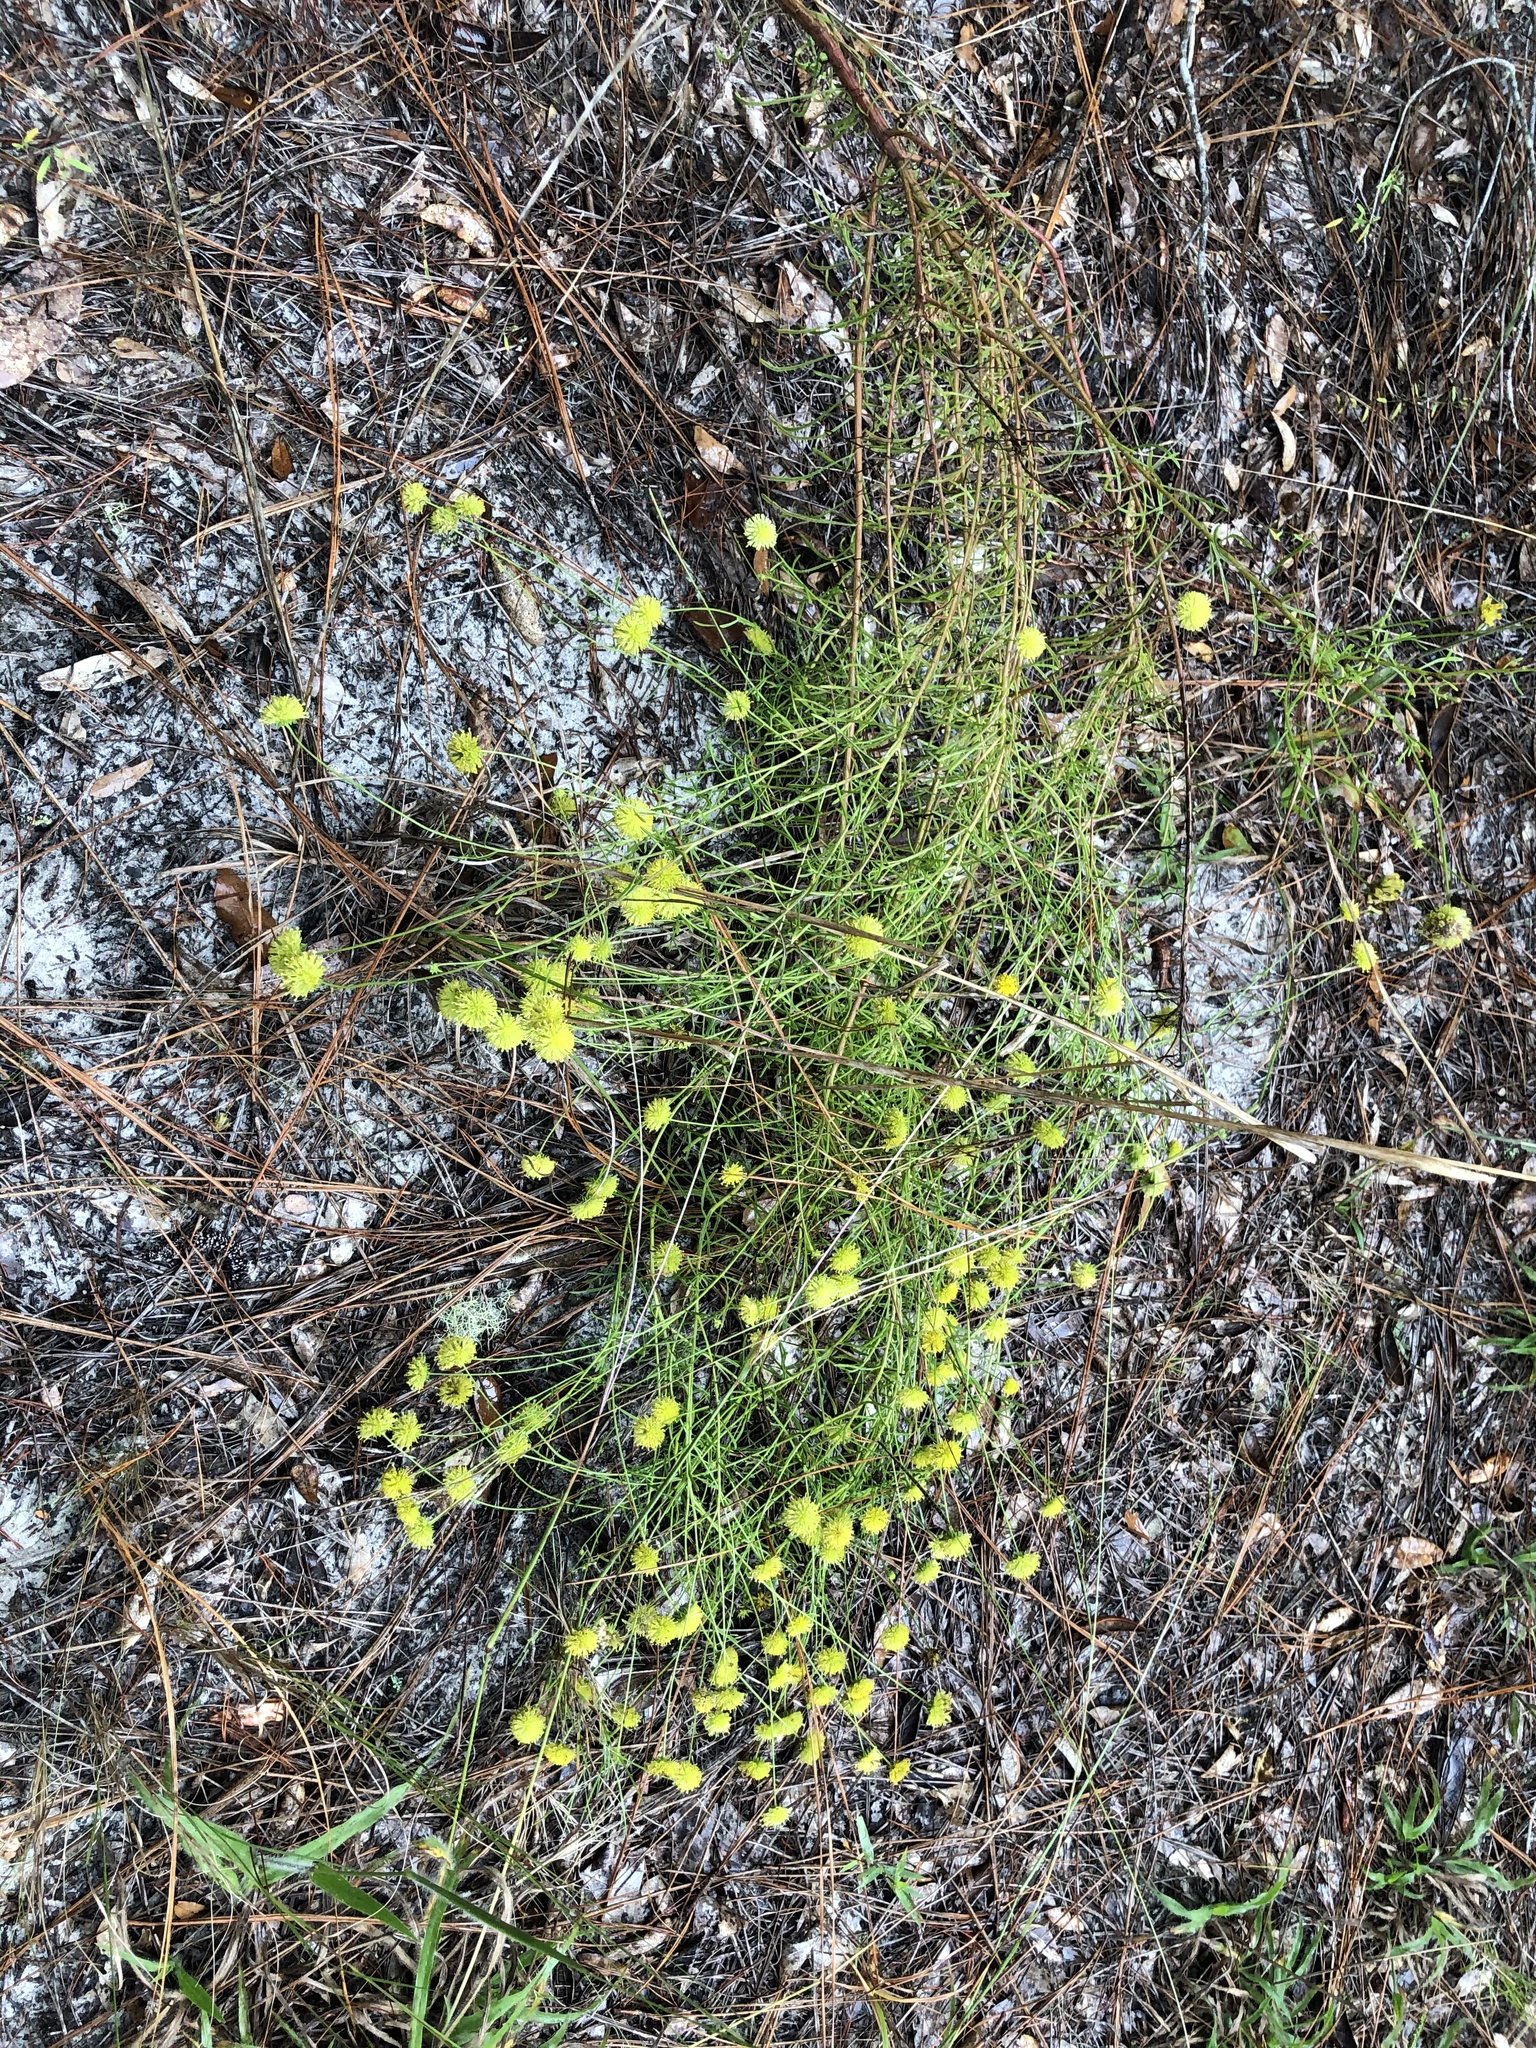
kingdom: Plantae
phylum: Tracheophyta
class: Magnoliopsida
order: Asterales
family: Asteraceae
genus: Balduina
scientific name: Balduina angustifolia
